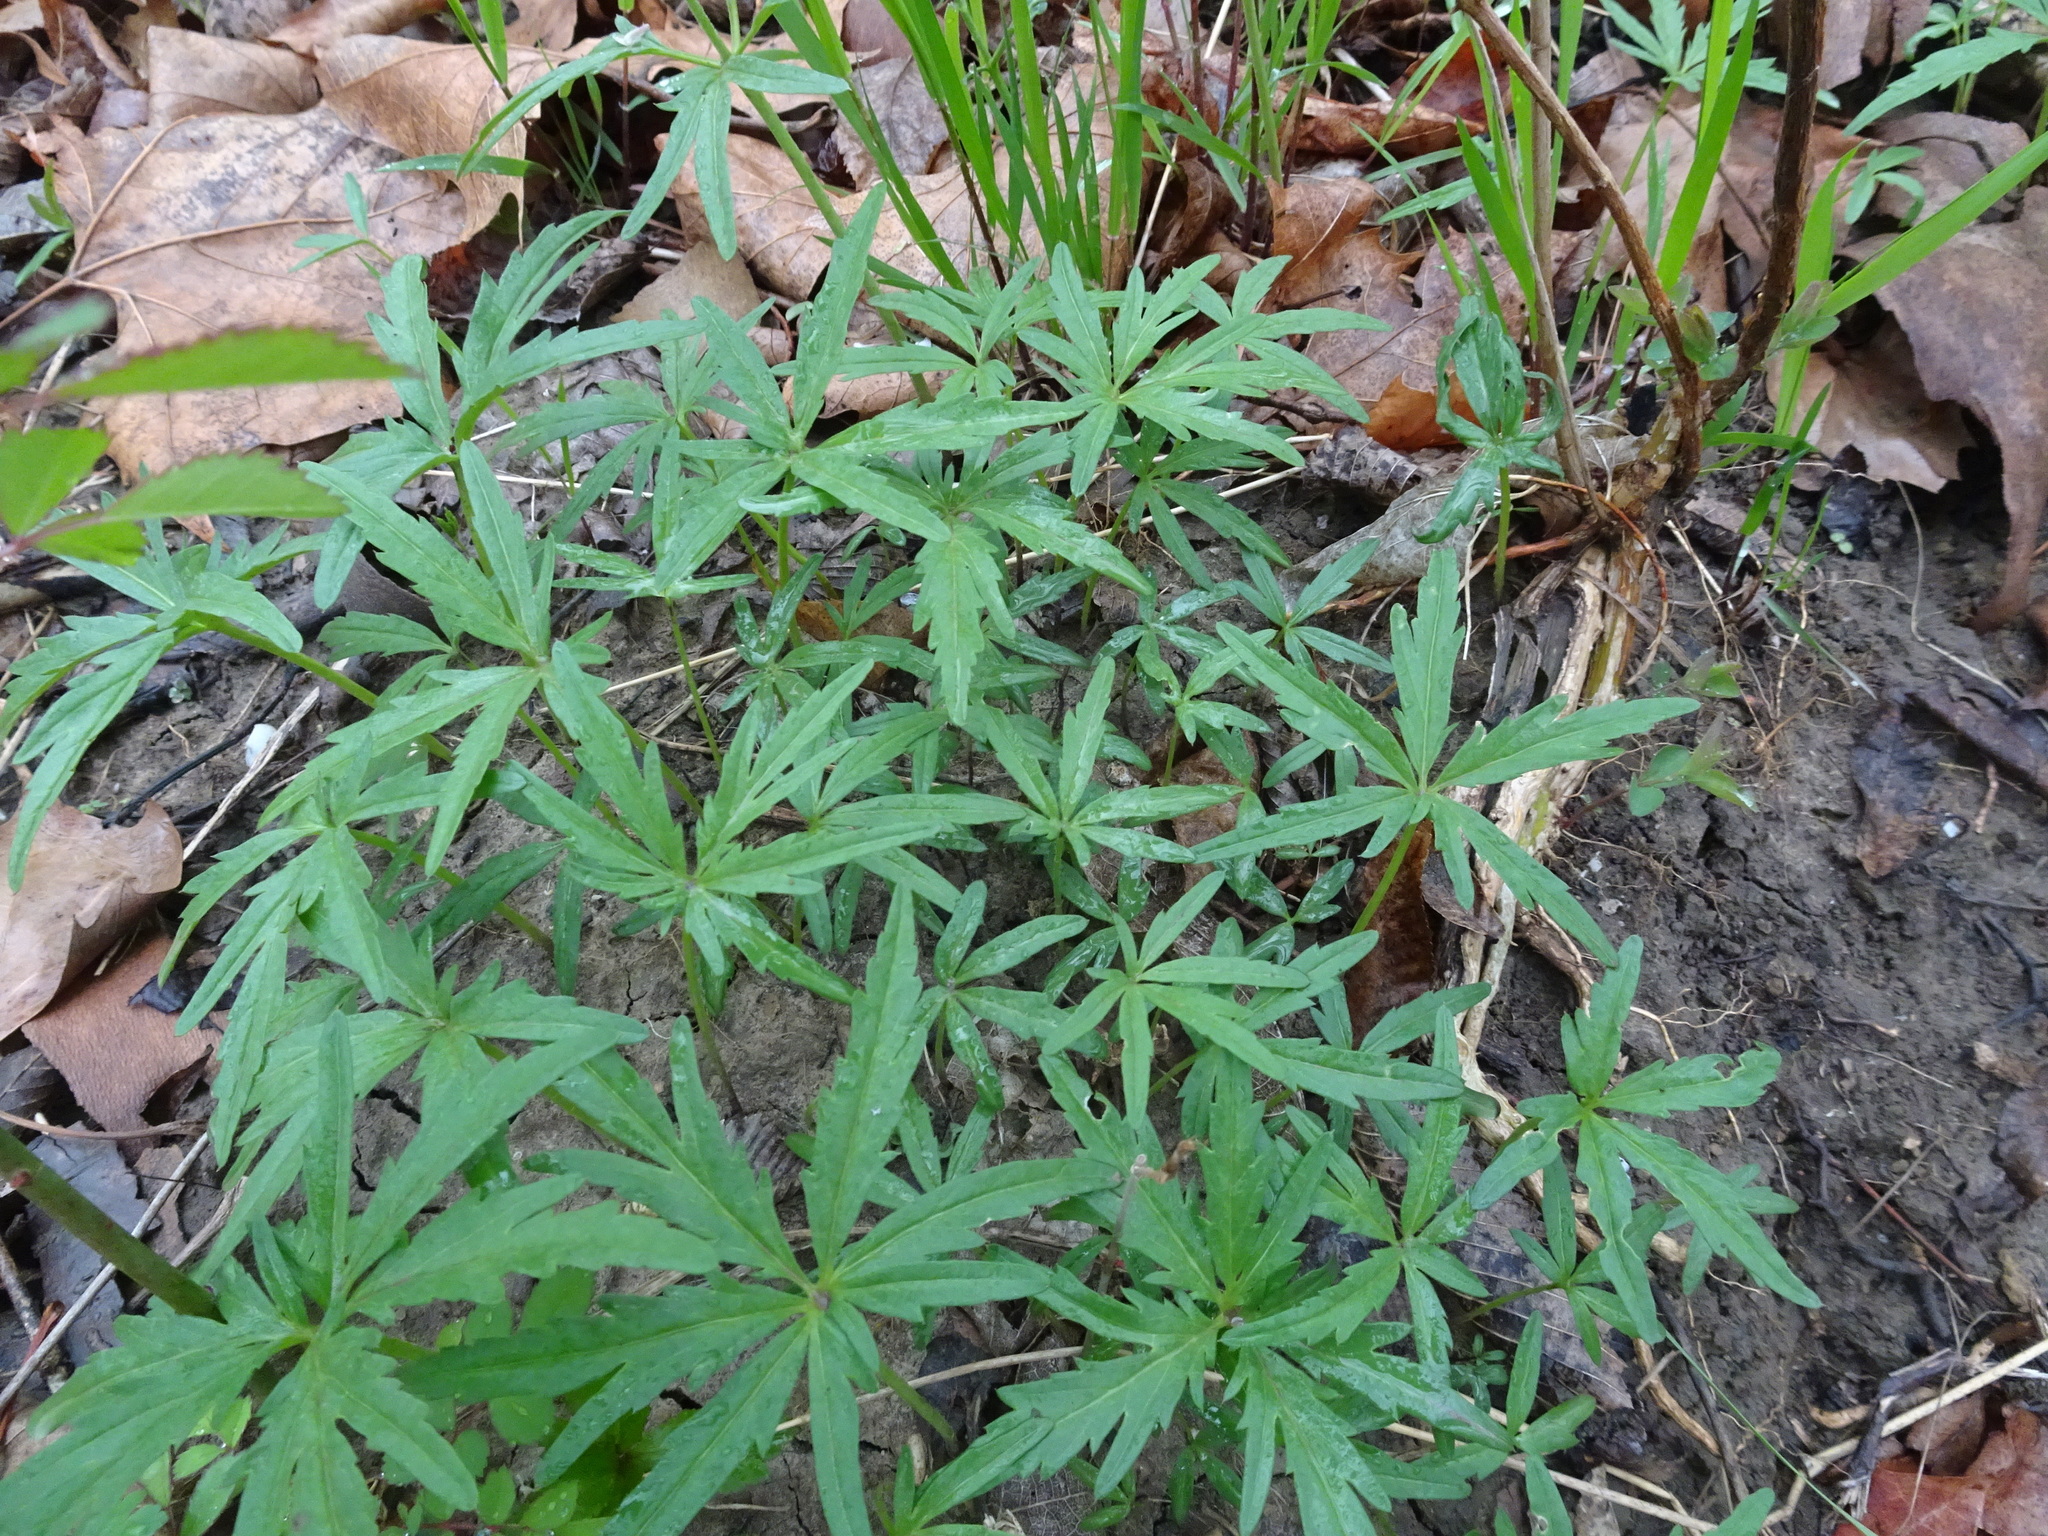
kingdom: Plantae
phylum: Tracheophyta
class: Magnoliopsida
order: Brassicales
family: Brassicaceae
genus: Cardamine
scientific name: Cardamine concatenata
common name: Cut-leaf toothcup
